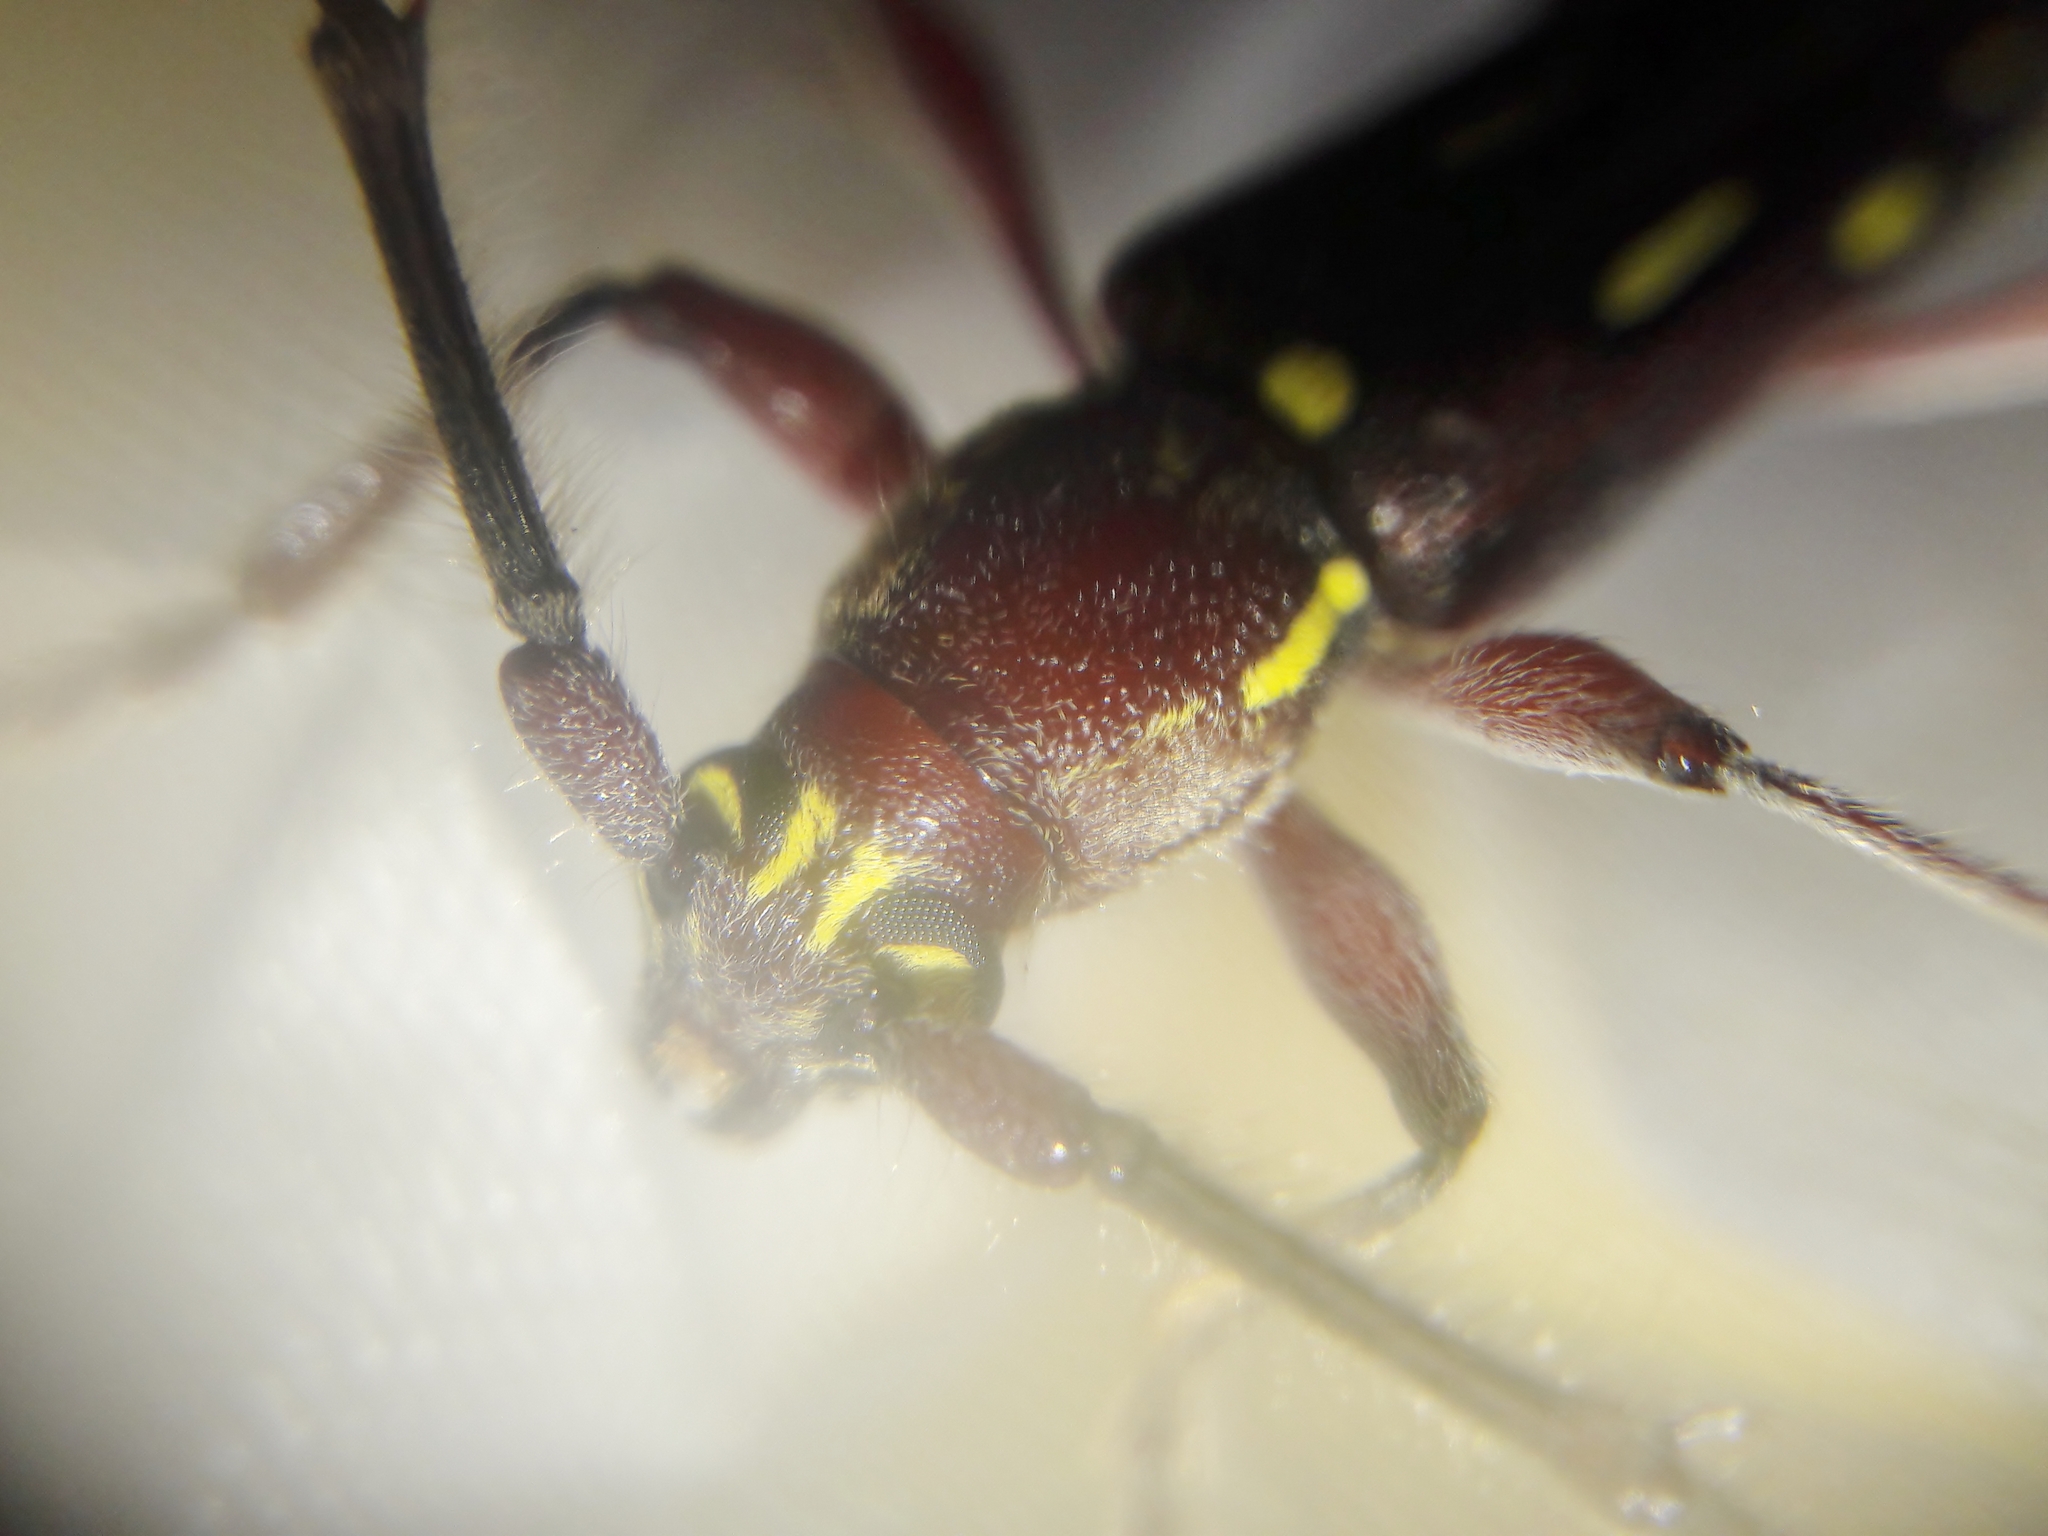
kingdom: Animalia
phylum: Arthropoda
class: Insecta
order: Coleoptera
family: Cerambycidae
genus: Ambonus
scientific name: Ambonus distinctus
